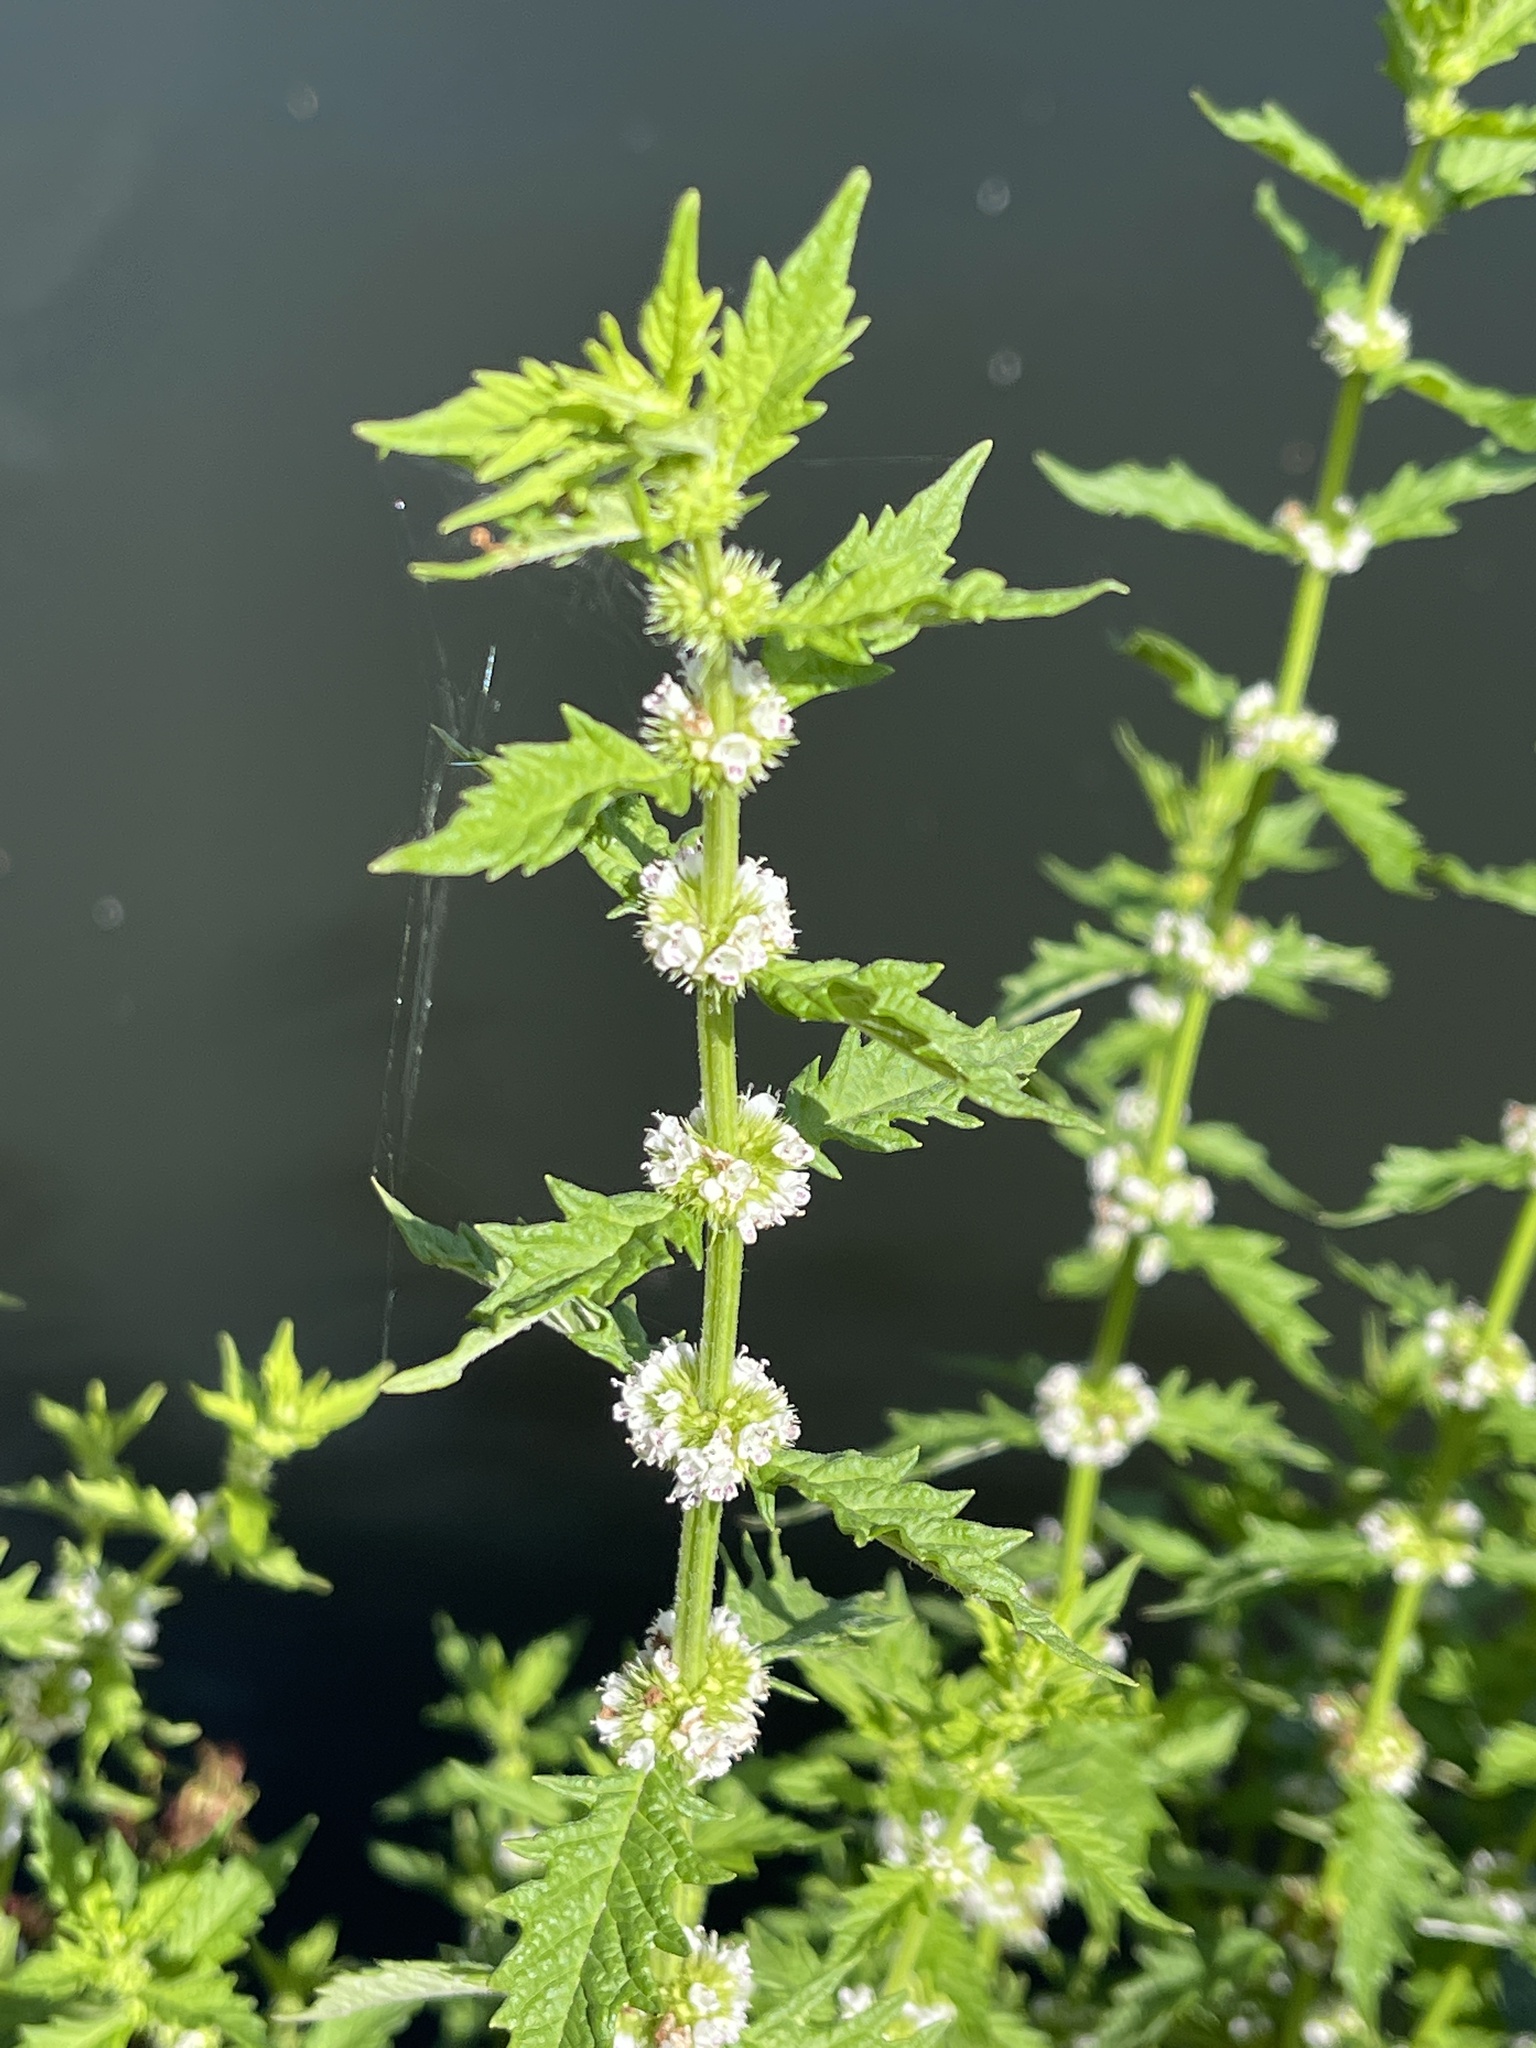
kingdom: Plantae
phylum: Tracheophyta
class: Magnoliopsida
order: Lamiales
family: Lamiaceae
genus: Lycopus
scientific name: Lycopus europaeus
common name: European bugleweed
